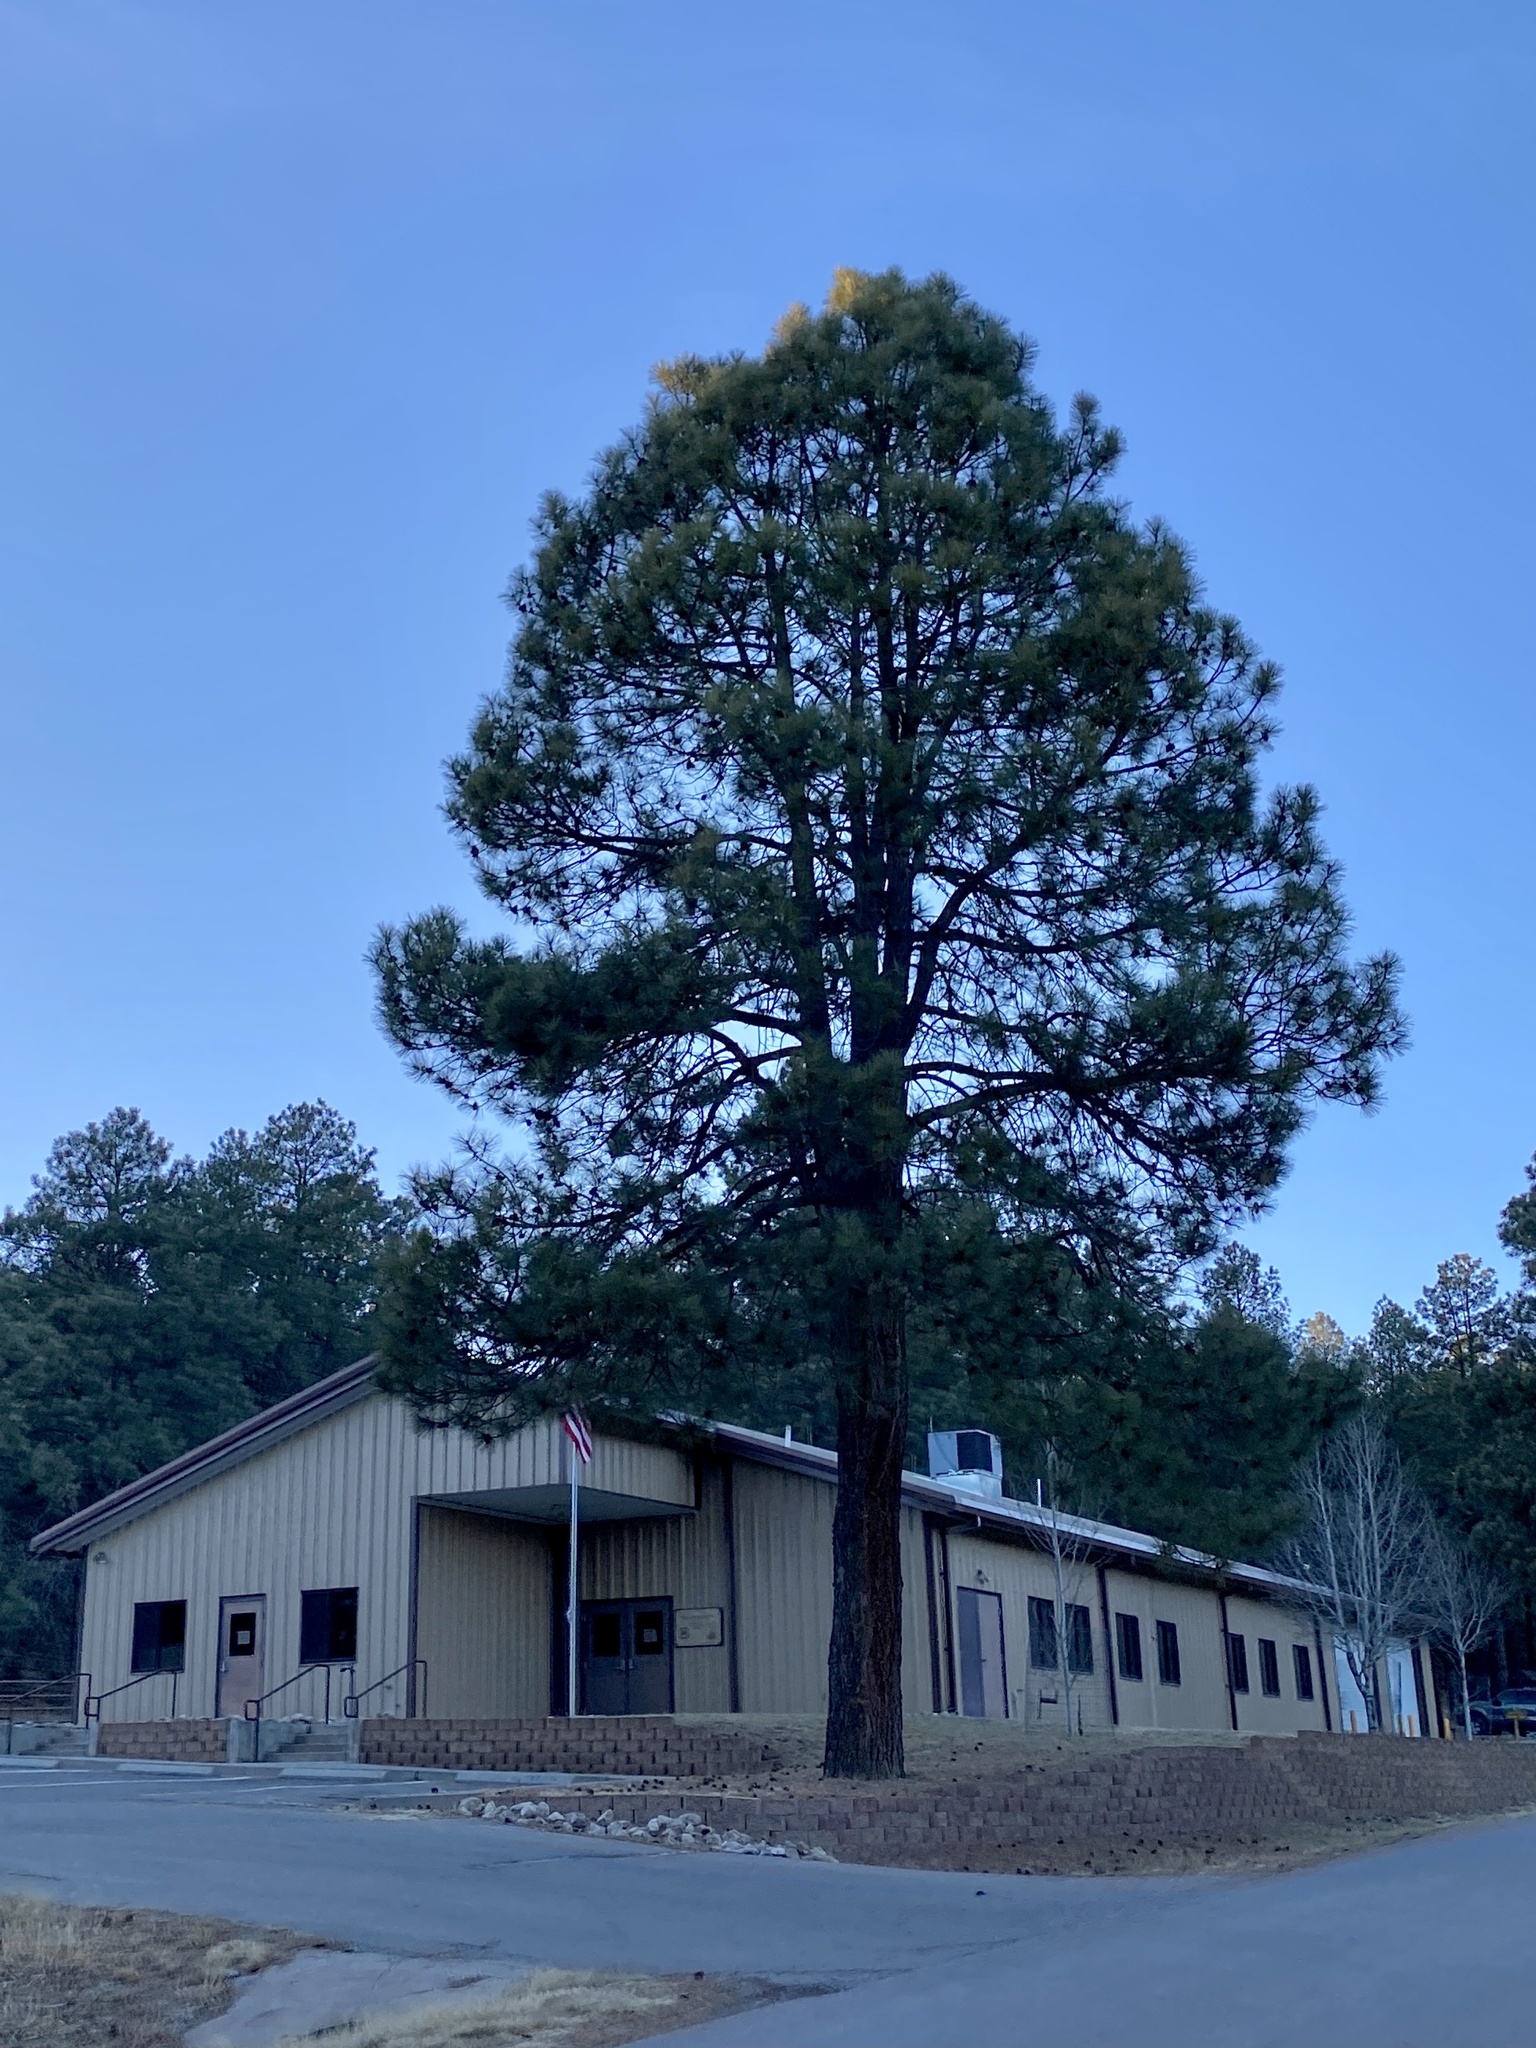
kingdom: Plantae
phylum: Tracheophyta
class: Pinopsida
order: Pinales
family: Pinaceae
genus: Pinus
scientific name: Pinus ponderosa
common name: Western yellow-pine
